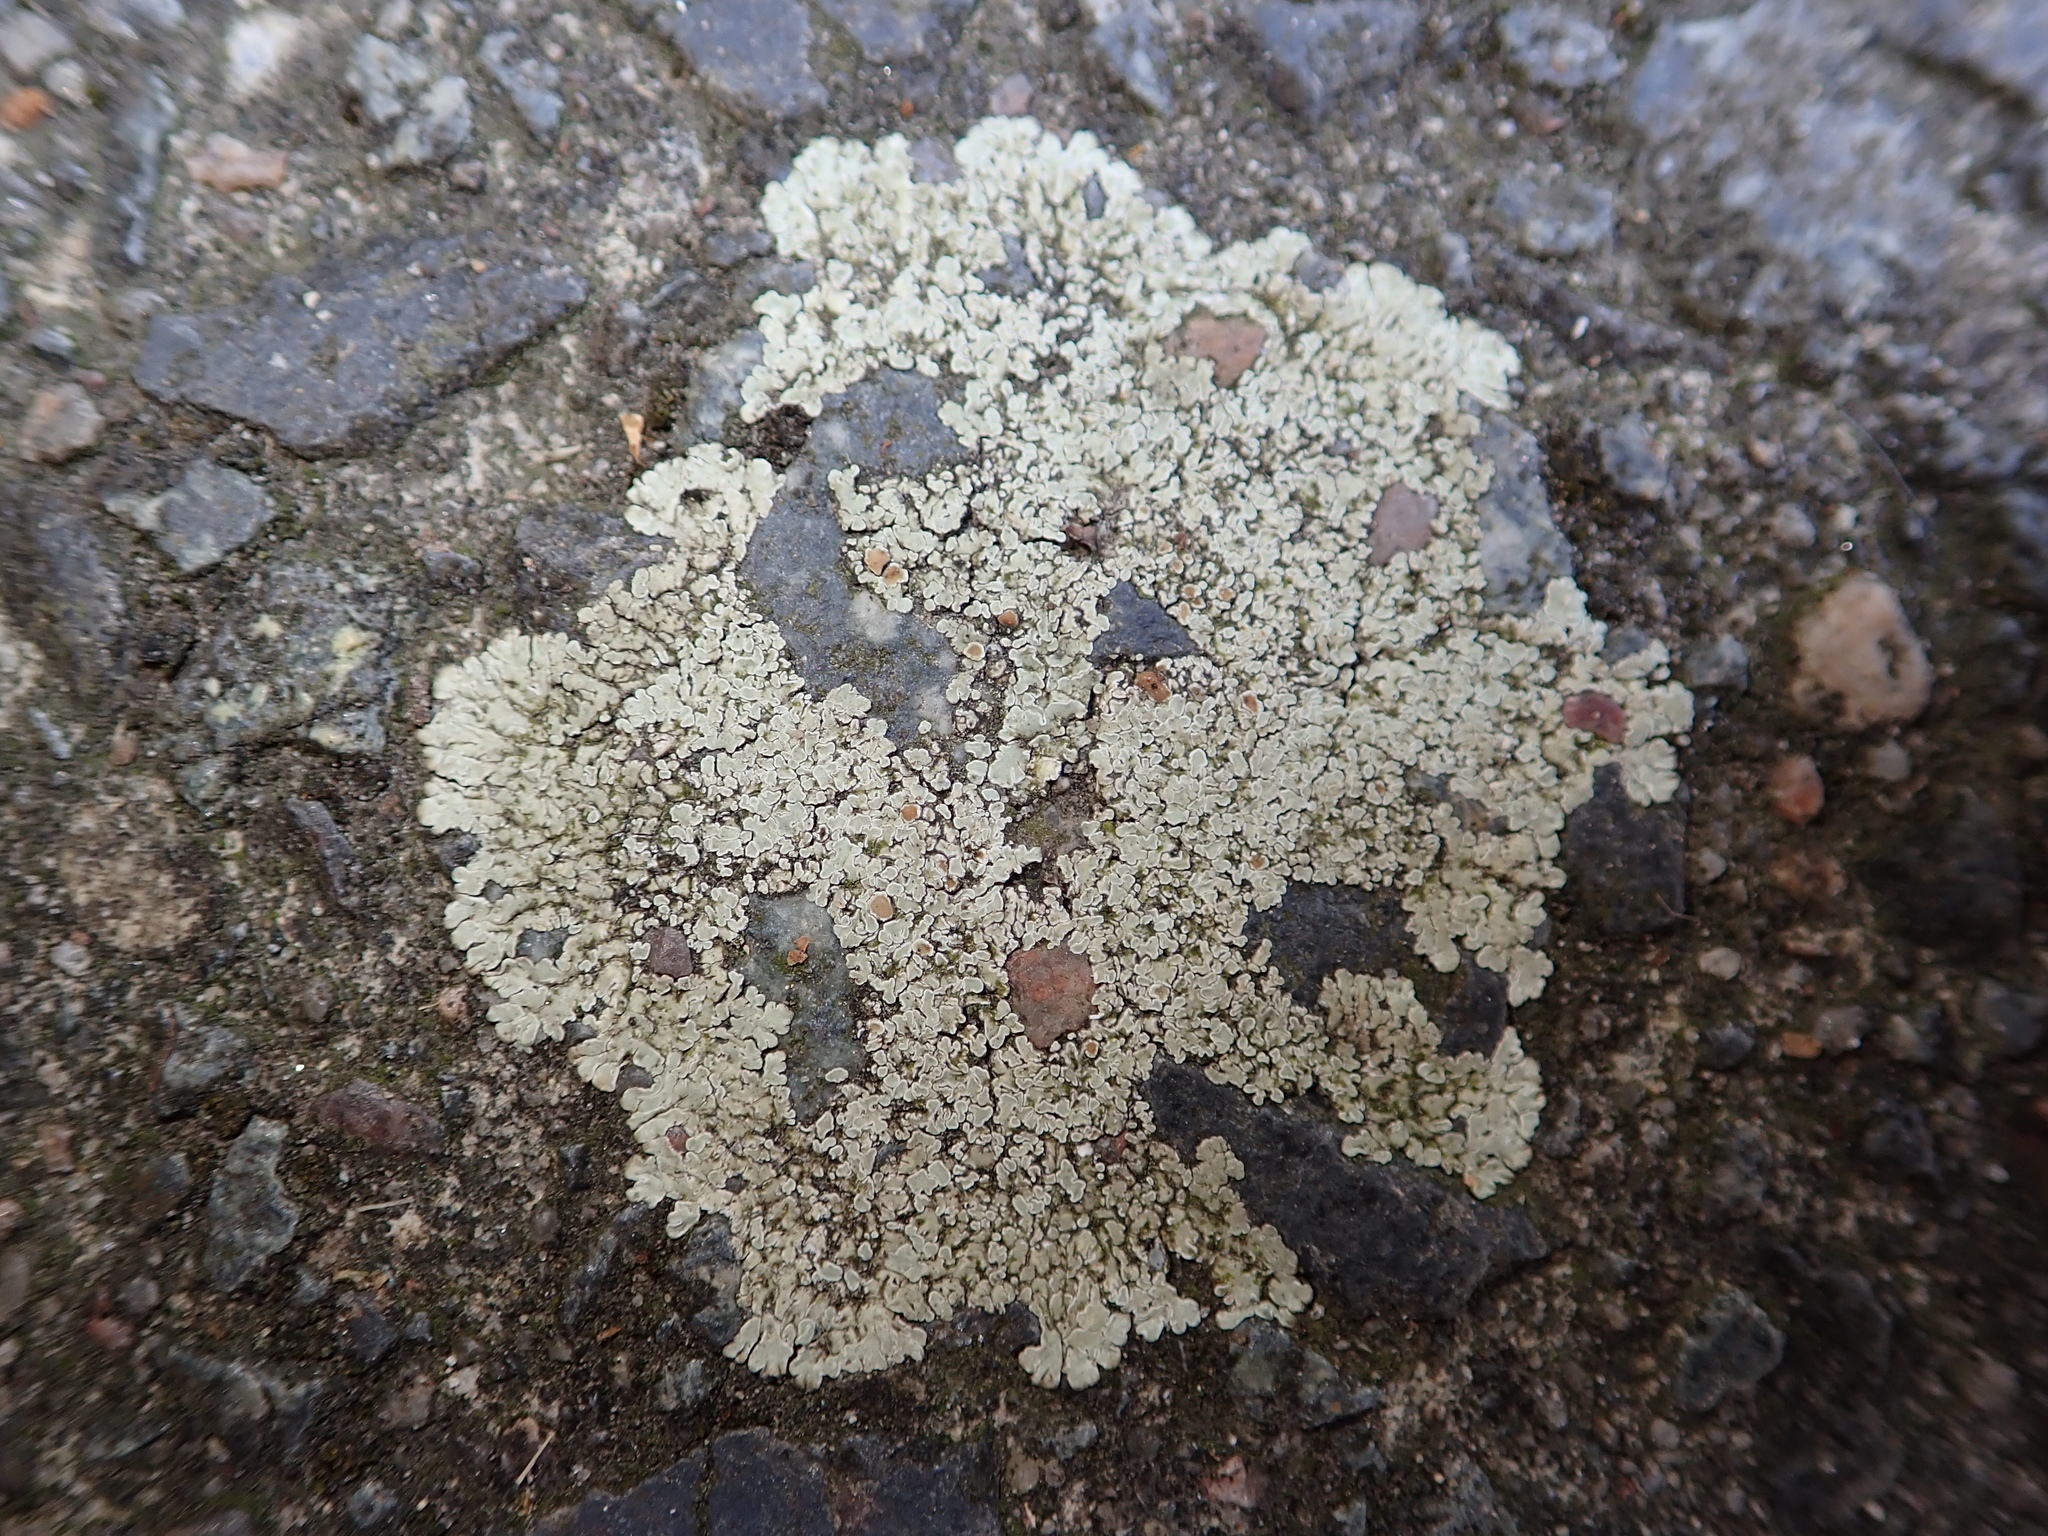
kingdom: Fungi
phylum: Ascomycota
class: Lecanoromycetes
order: Lecanorales
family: Lecanoraceae
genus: Protoparmeliopsis
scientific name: Protoparmeliopsis muralis
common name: Stonewall rim lichen
